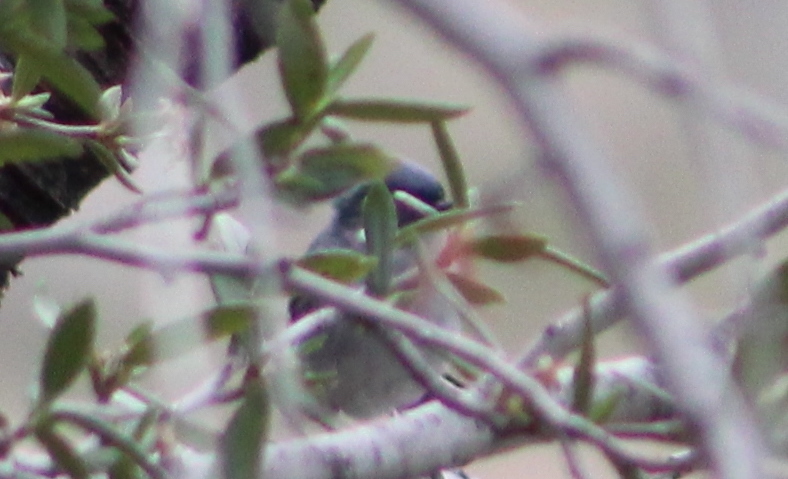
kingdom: Animalia
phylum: Chordata
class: Aves
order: Passeriformes
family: Polioptilidae
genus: Polioptila
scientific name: Polioptila caerulea
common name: Blue-gray gnatcatcher
